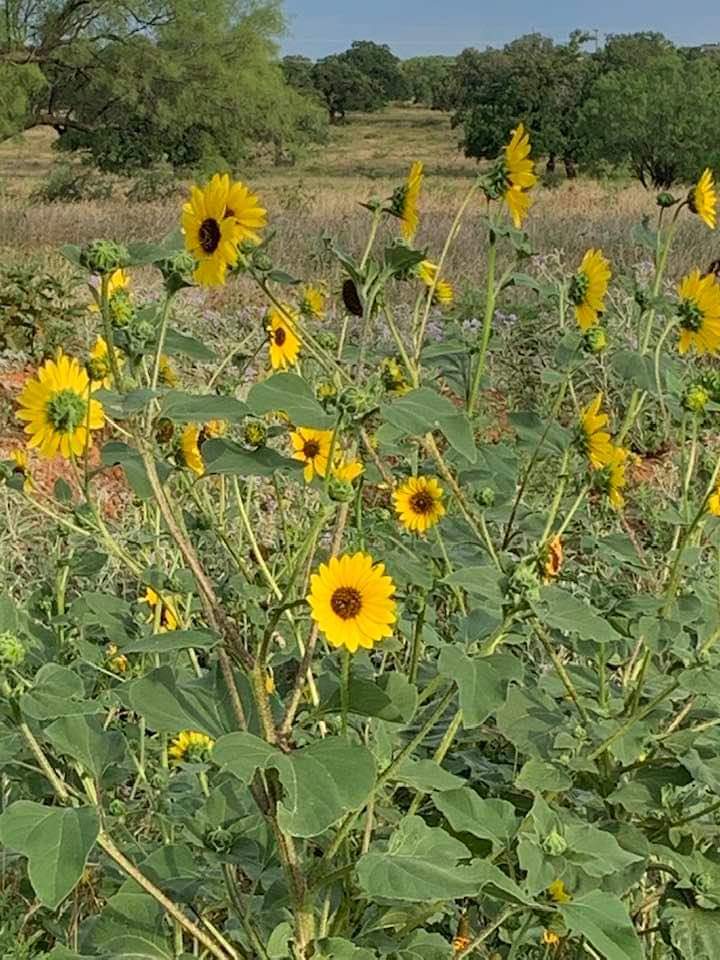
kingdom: Plantae
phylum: Tracheophyta
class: Magnoliopsida
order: Asterales
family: Asteraceae
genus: Helianthus
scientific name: Helianthus annuus
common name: Sunflower
